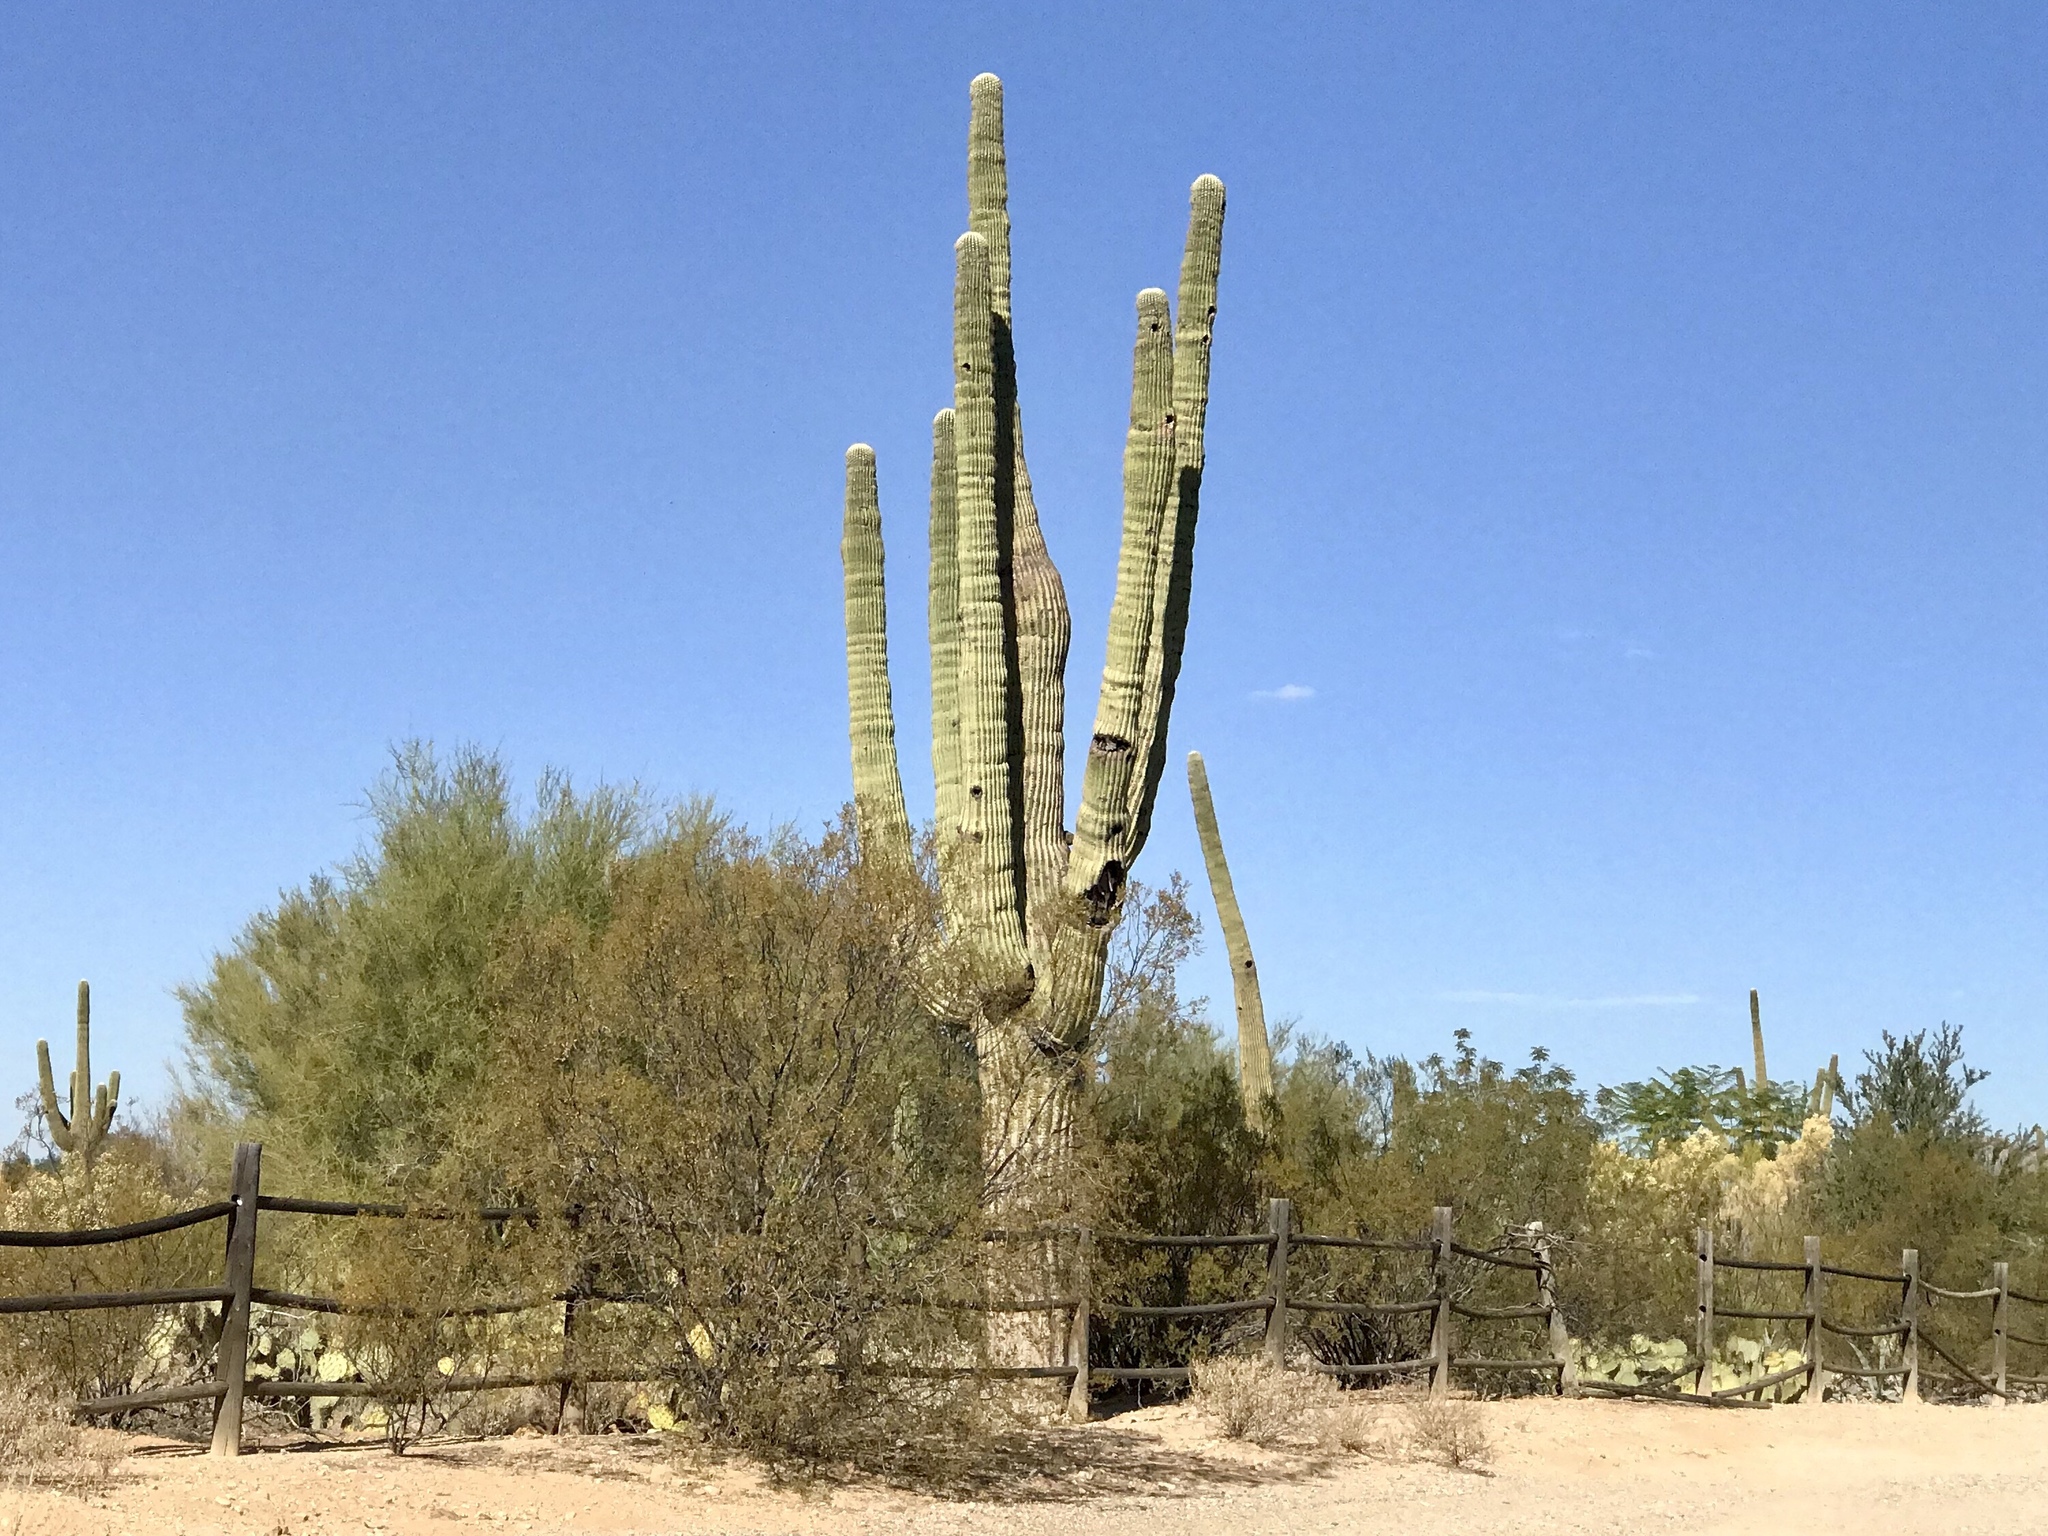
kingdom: Plantae
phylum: Tracheophyta
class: Magnoliopsida
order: Caryophyllales
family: Cactaceae
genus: Carnegiea
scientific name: Carnegiea gigantea
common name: Saguaro
